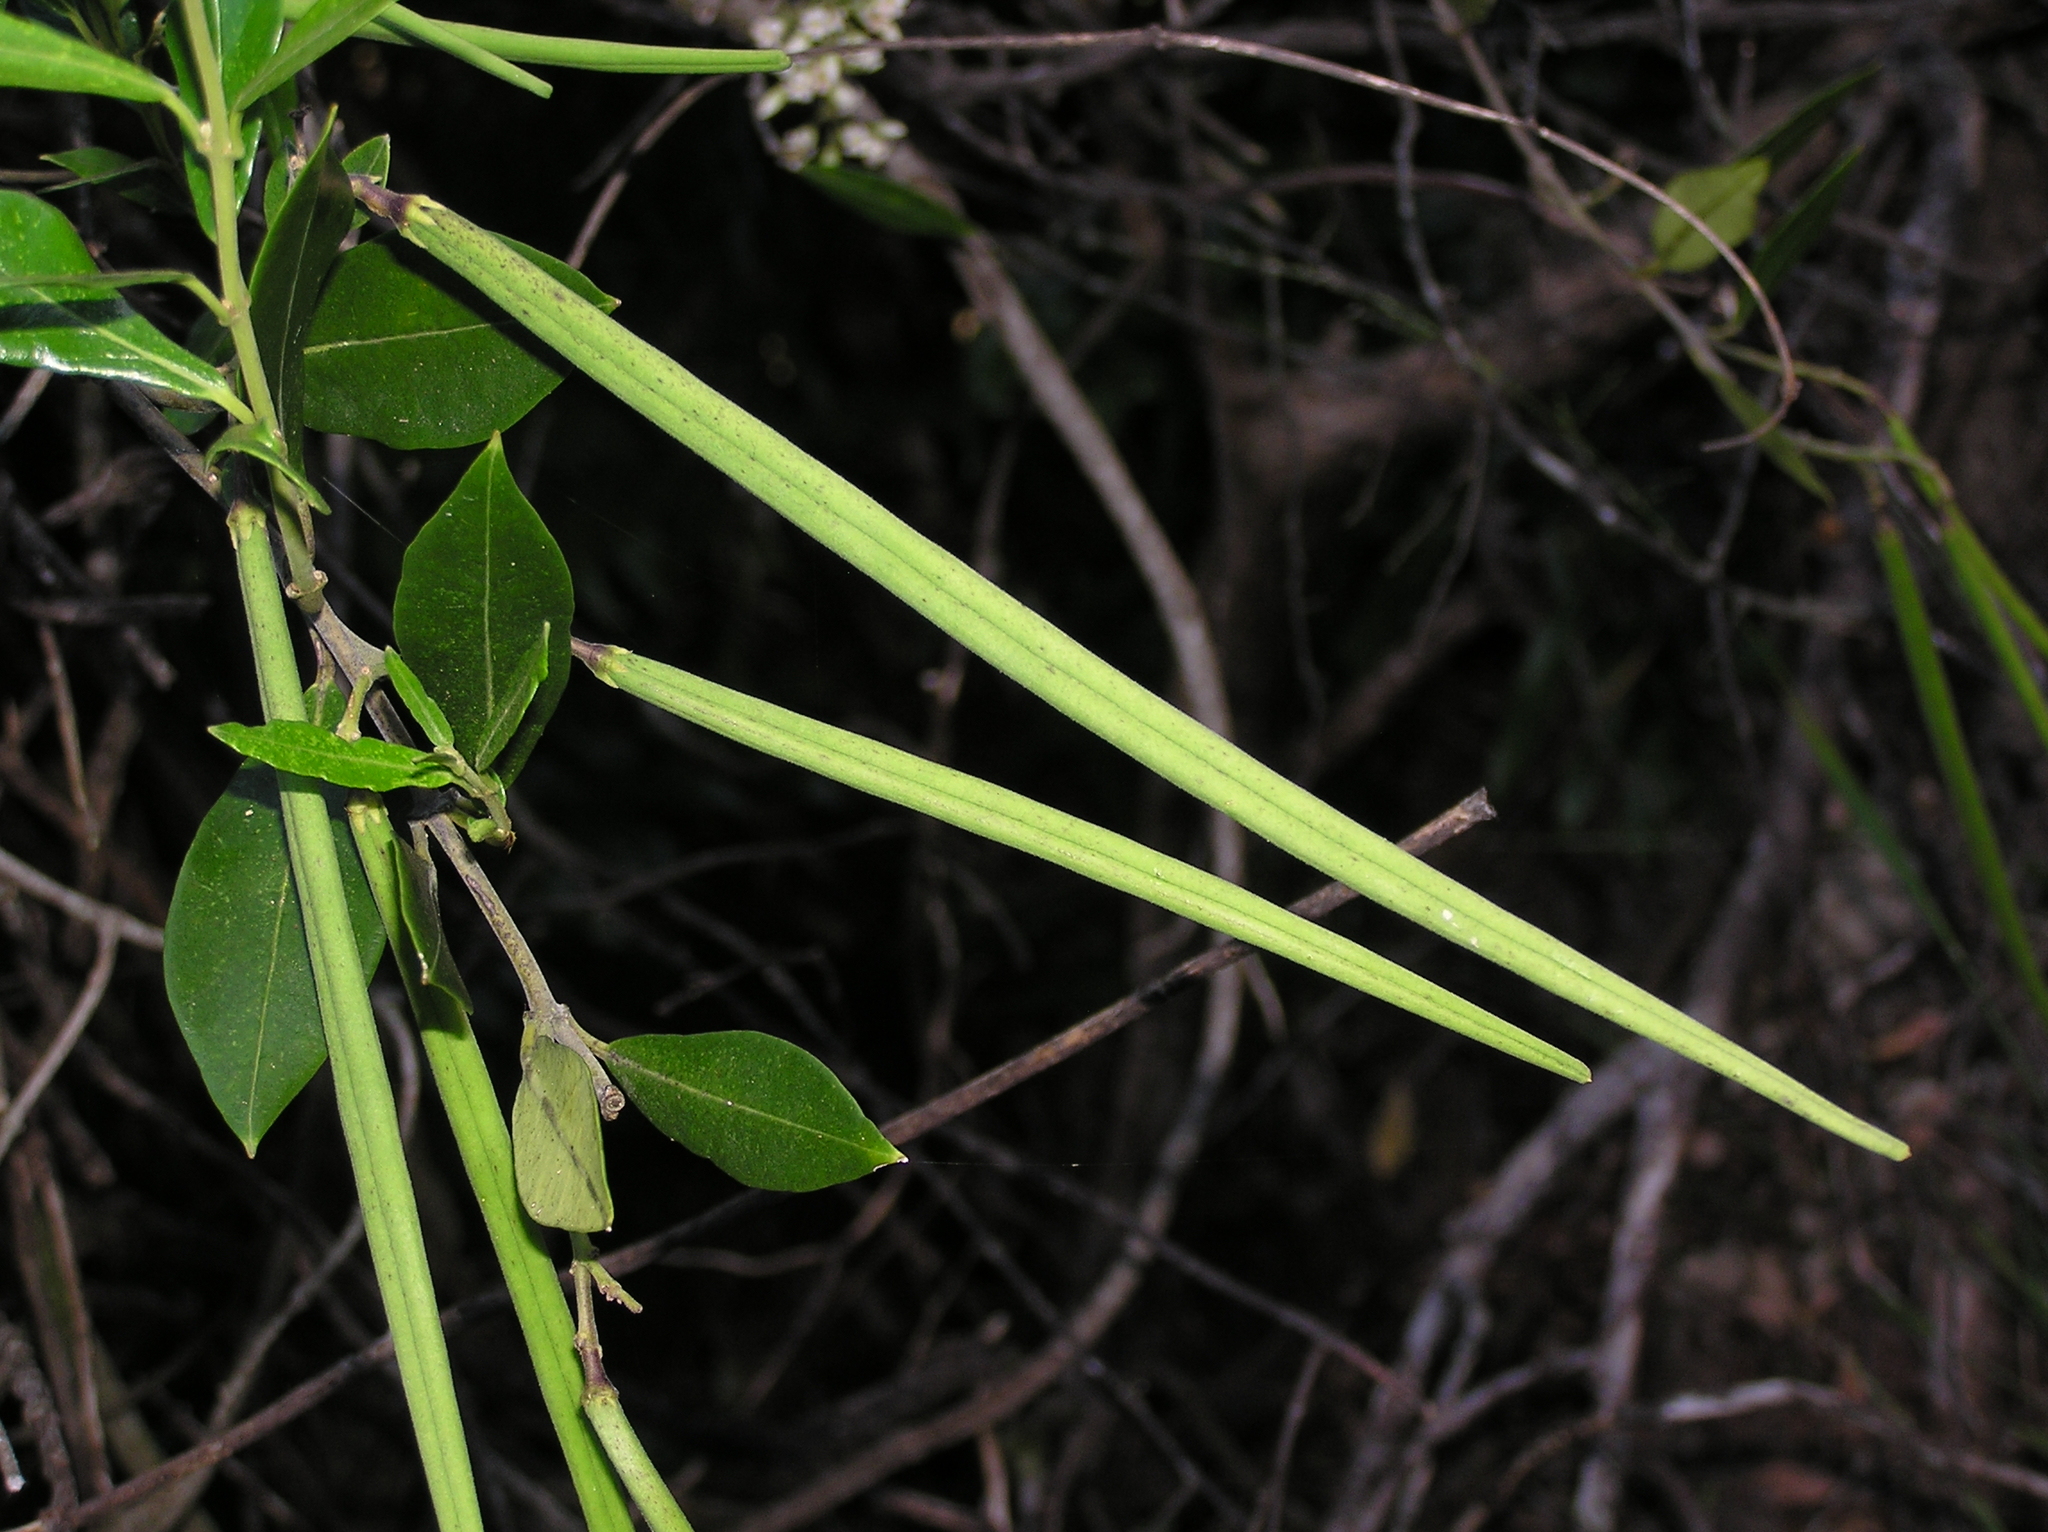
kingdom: Plantae
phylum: Tracheophyta
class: Magnoliopsida
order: Gentianales
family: Apocynaceae
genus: Parsonsia
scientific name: Parsonsia heterophylla
